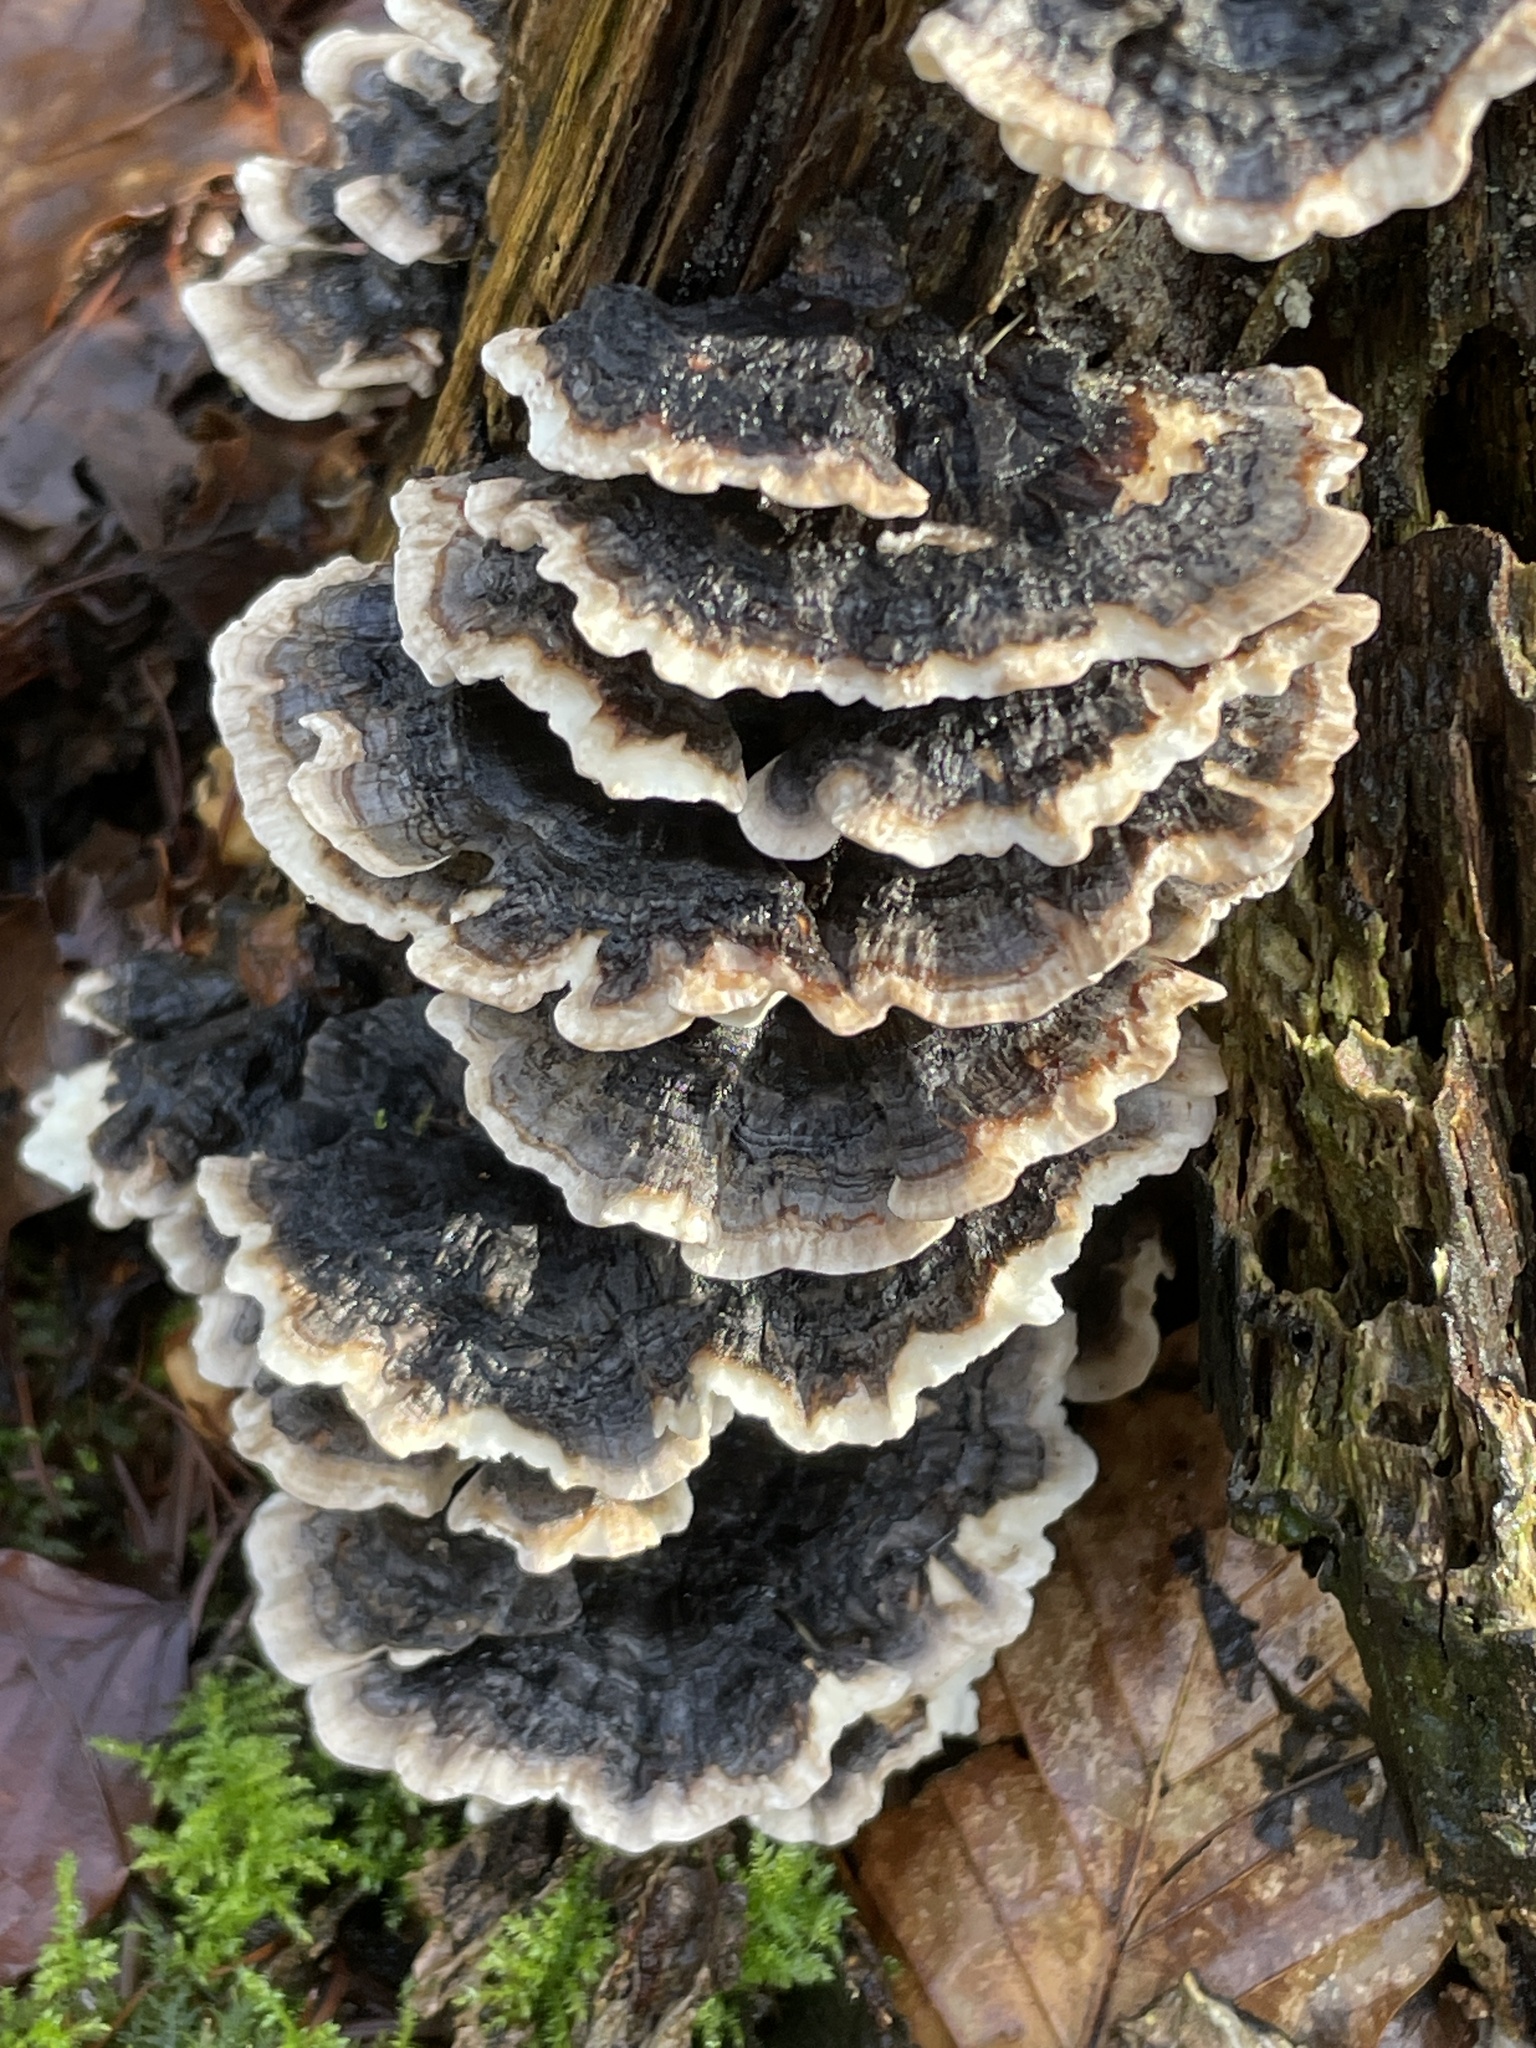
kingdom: Fungi
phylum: Basidiomycota
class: Agaricomycetes
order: Polyporales
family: Polyporaceae
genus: Trametes
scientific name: Trametes versicolor
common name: Turkeytail
